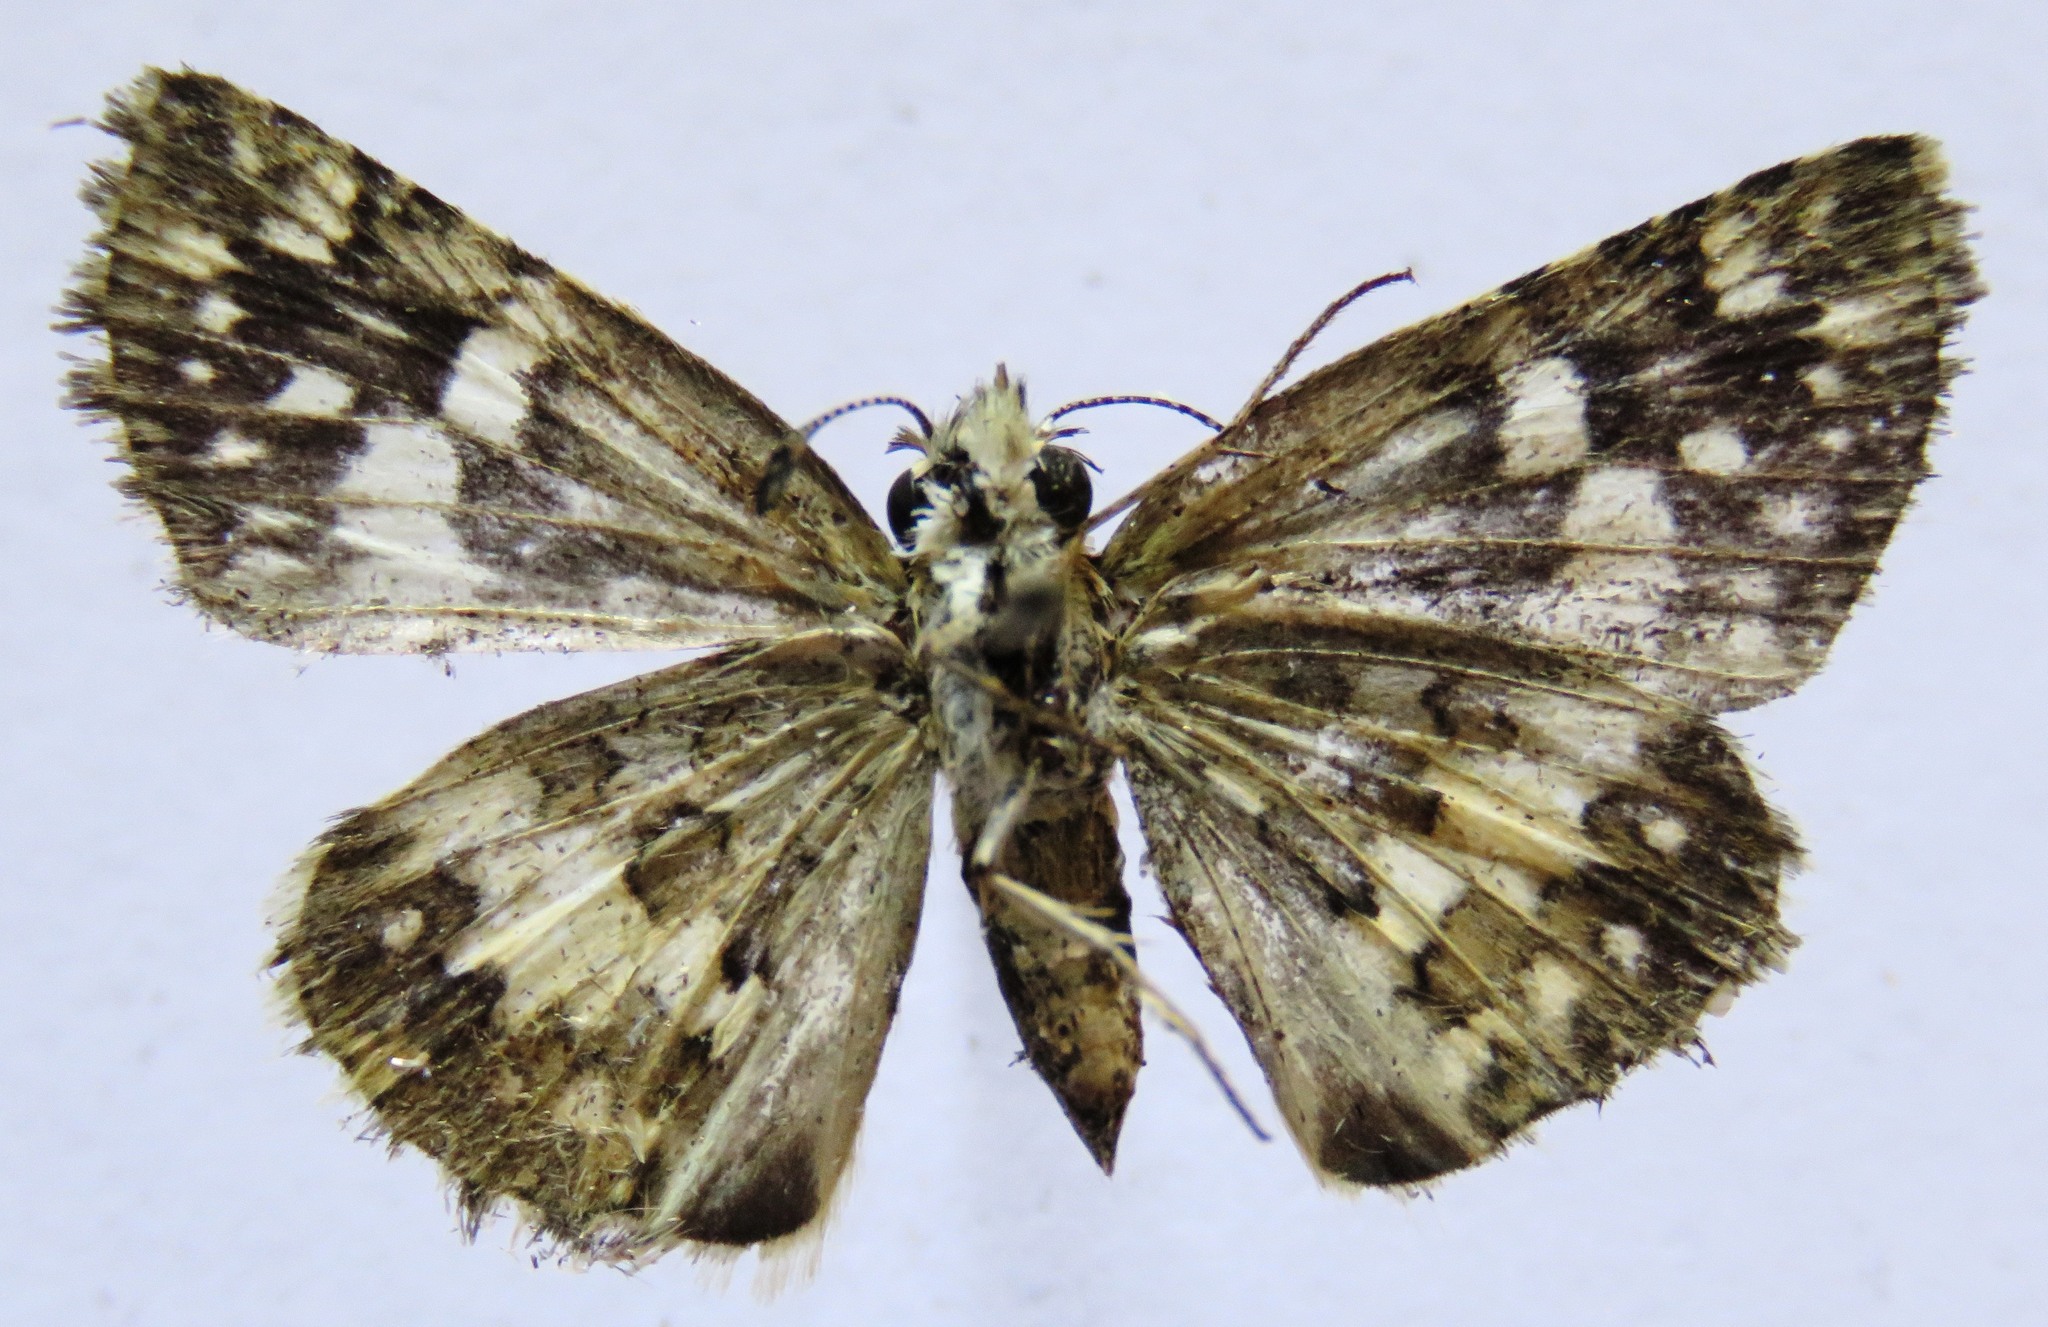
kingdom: Animalia
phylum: Arthropoda
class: Insecta
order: Lepidoptera
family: Hesperiidae
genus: Burnsius
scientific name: Burnsius adepta
